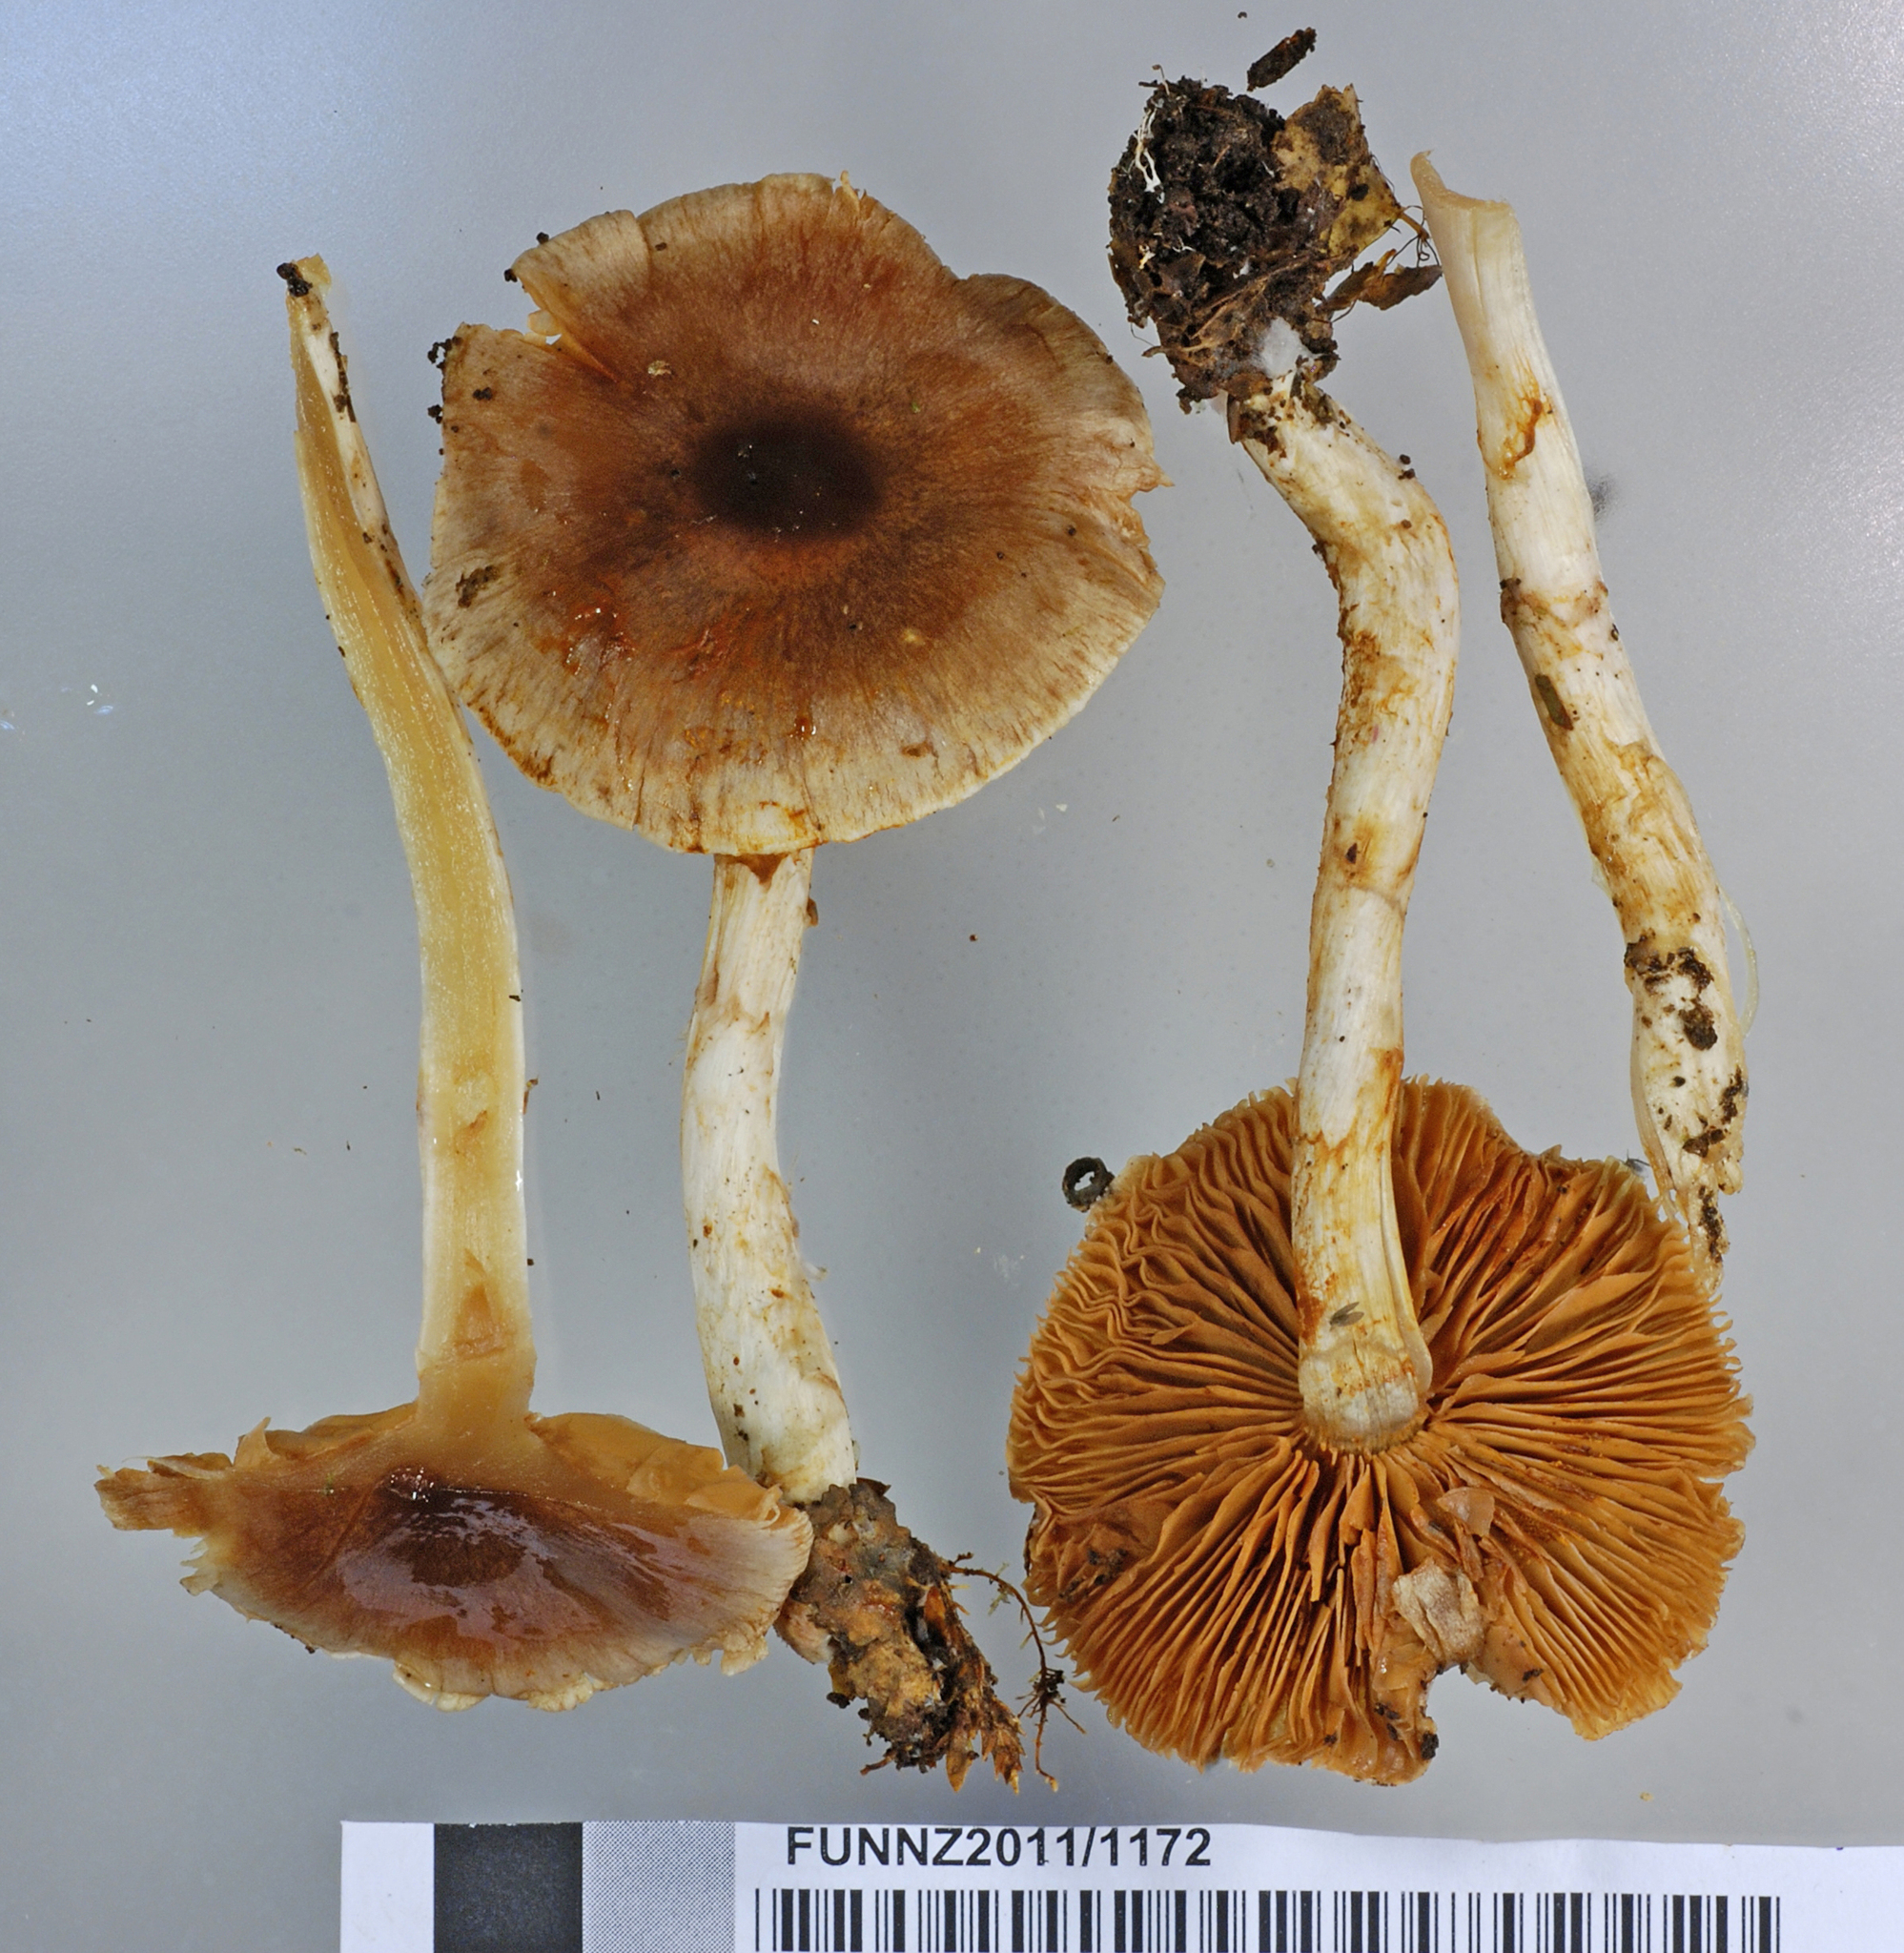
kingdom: Fungi
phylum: Basidiomycota
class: Agaricomycetes
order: Agaricales
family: Cortinariaceae
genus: Cortinarius
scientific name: Cortinarius dysodes
